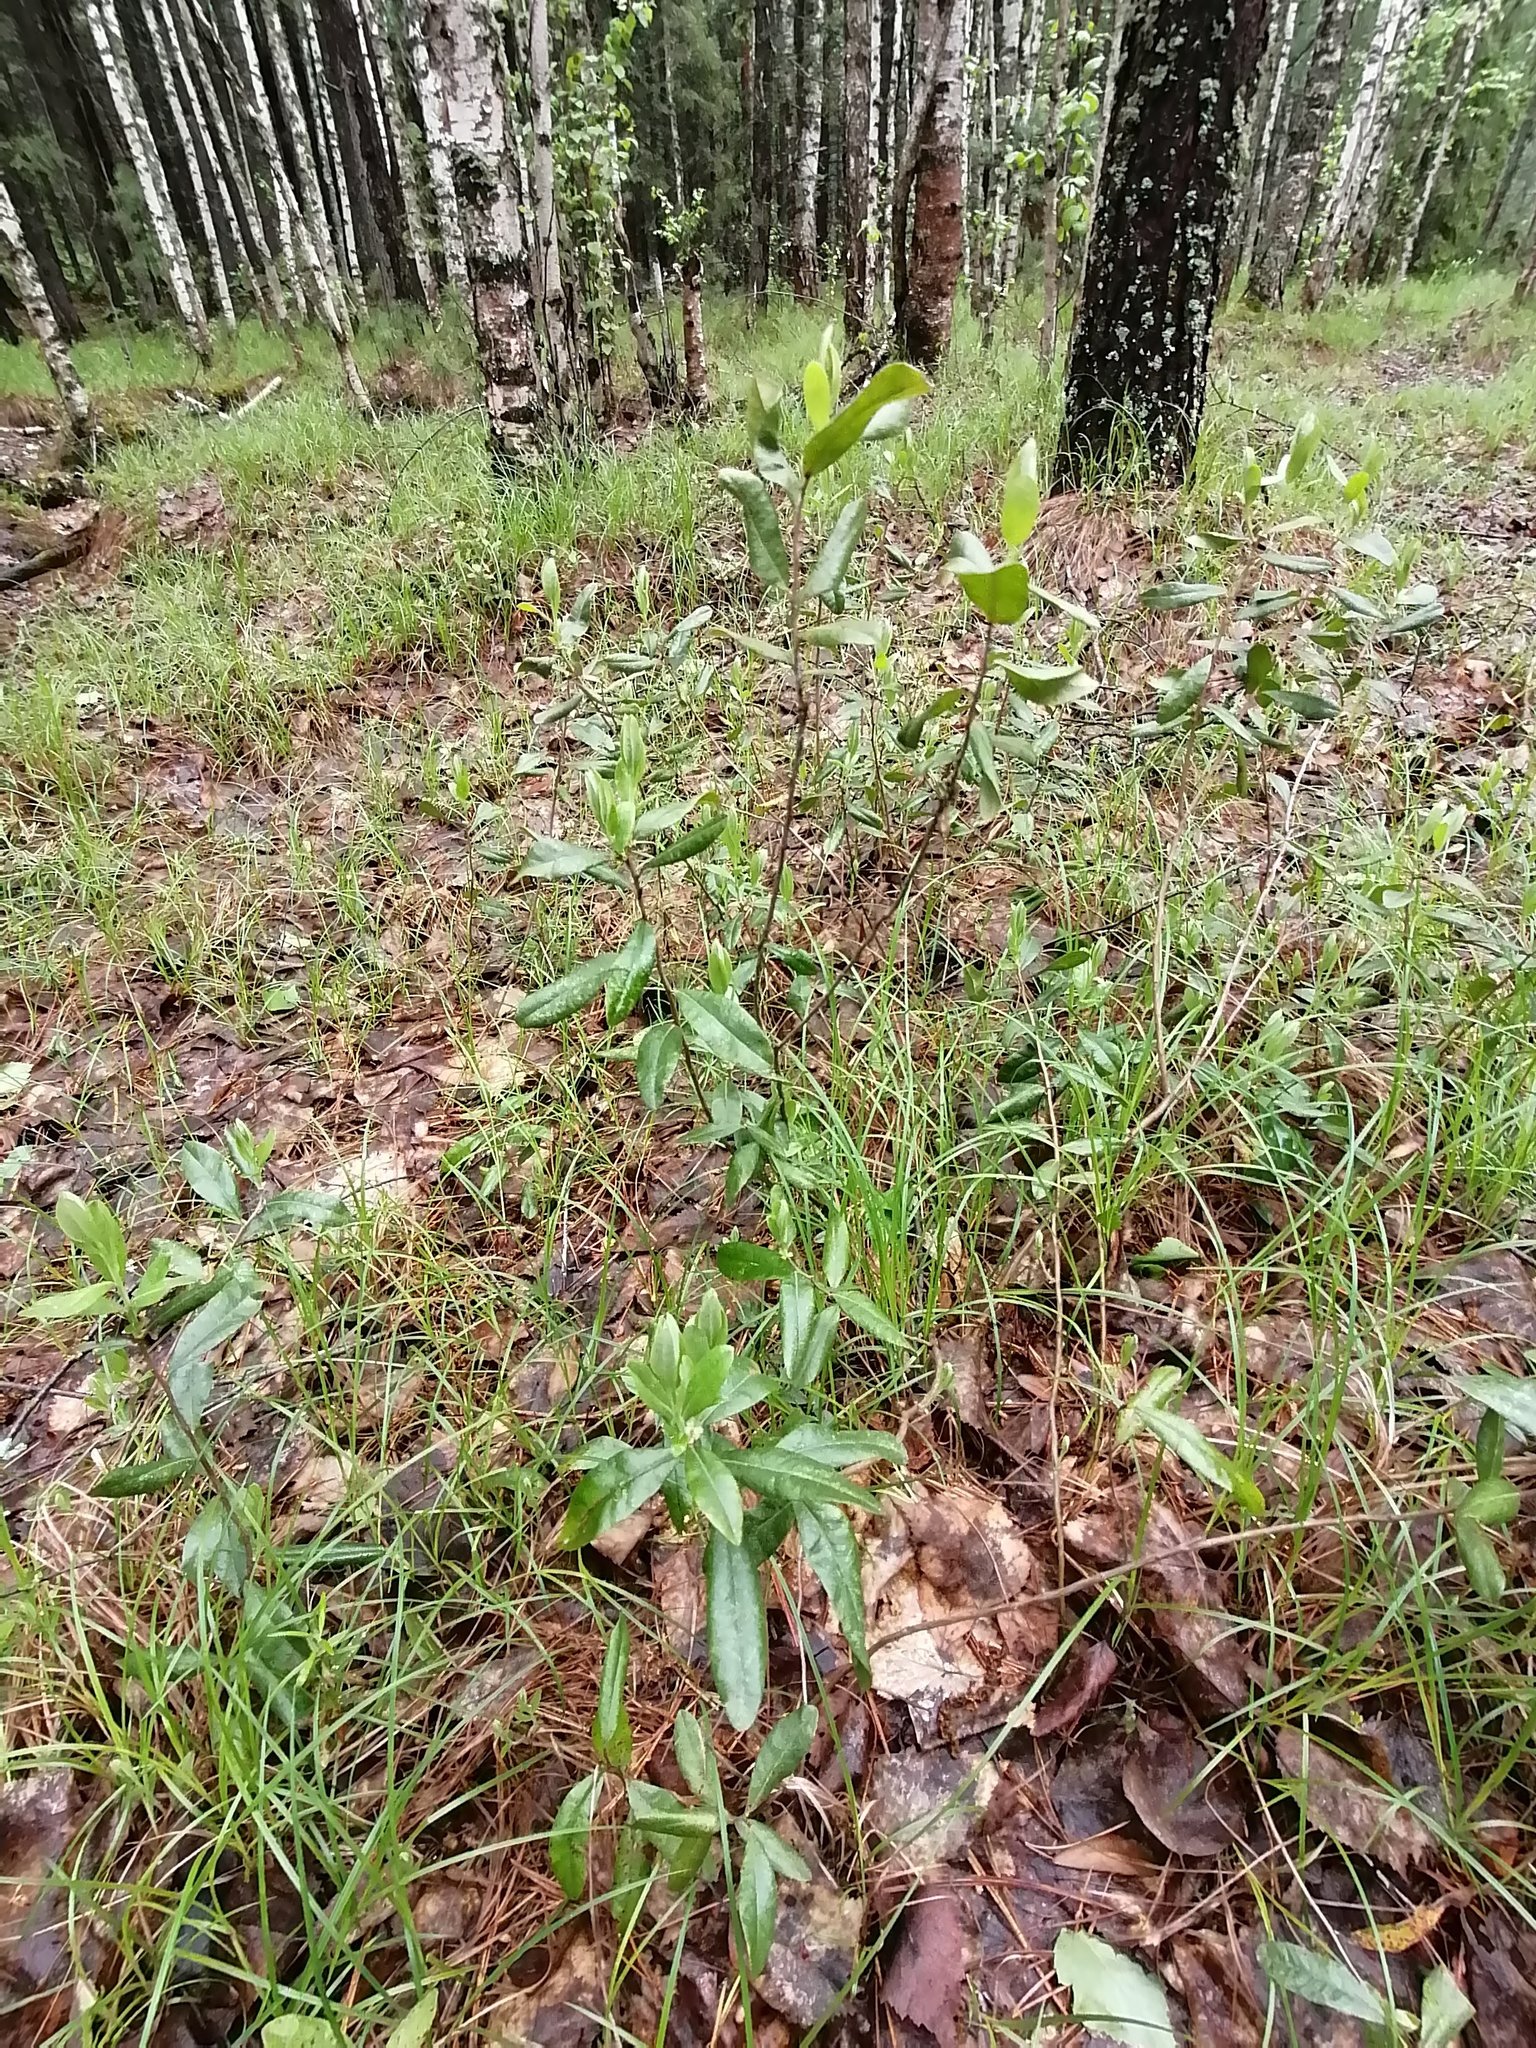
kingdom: Plantae
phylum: Tracheophyta
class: Magnoliopsida
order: Ericales
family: Ericaceae
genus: Chamaedaphne
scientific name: Chamaedaphne calyculata
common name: Leatherleaf
